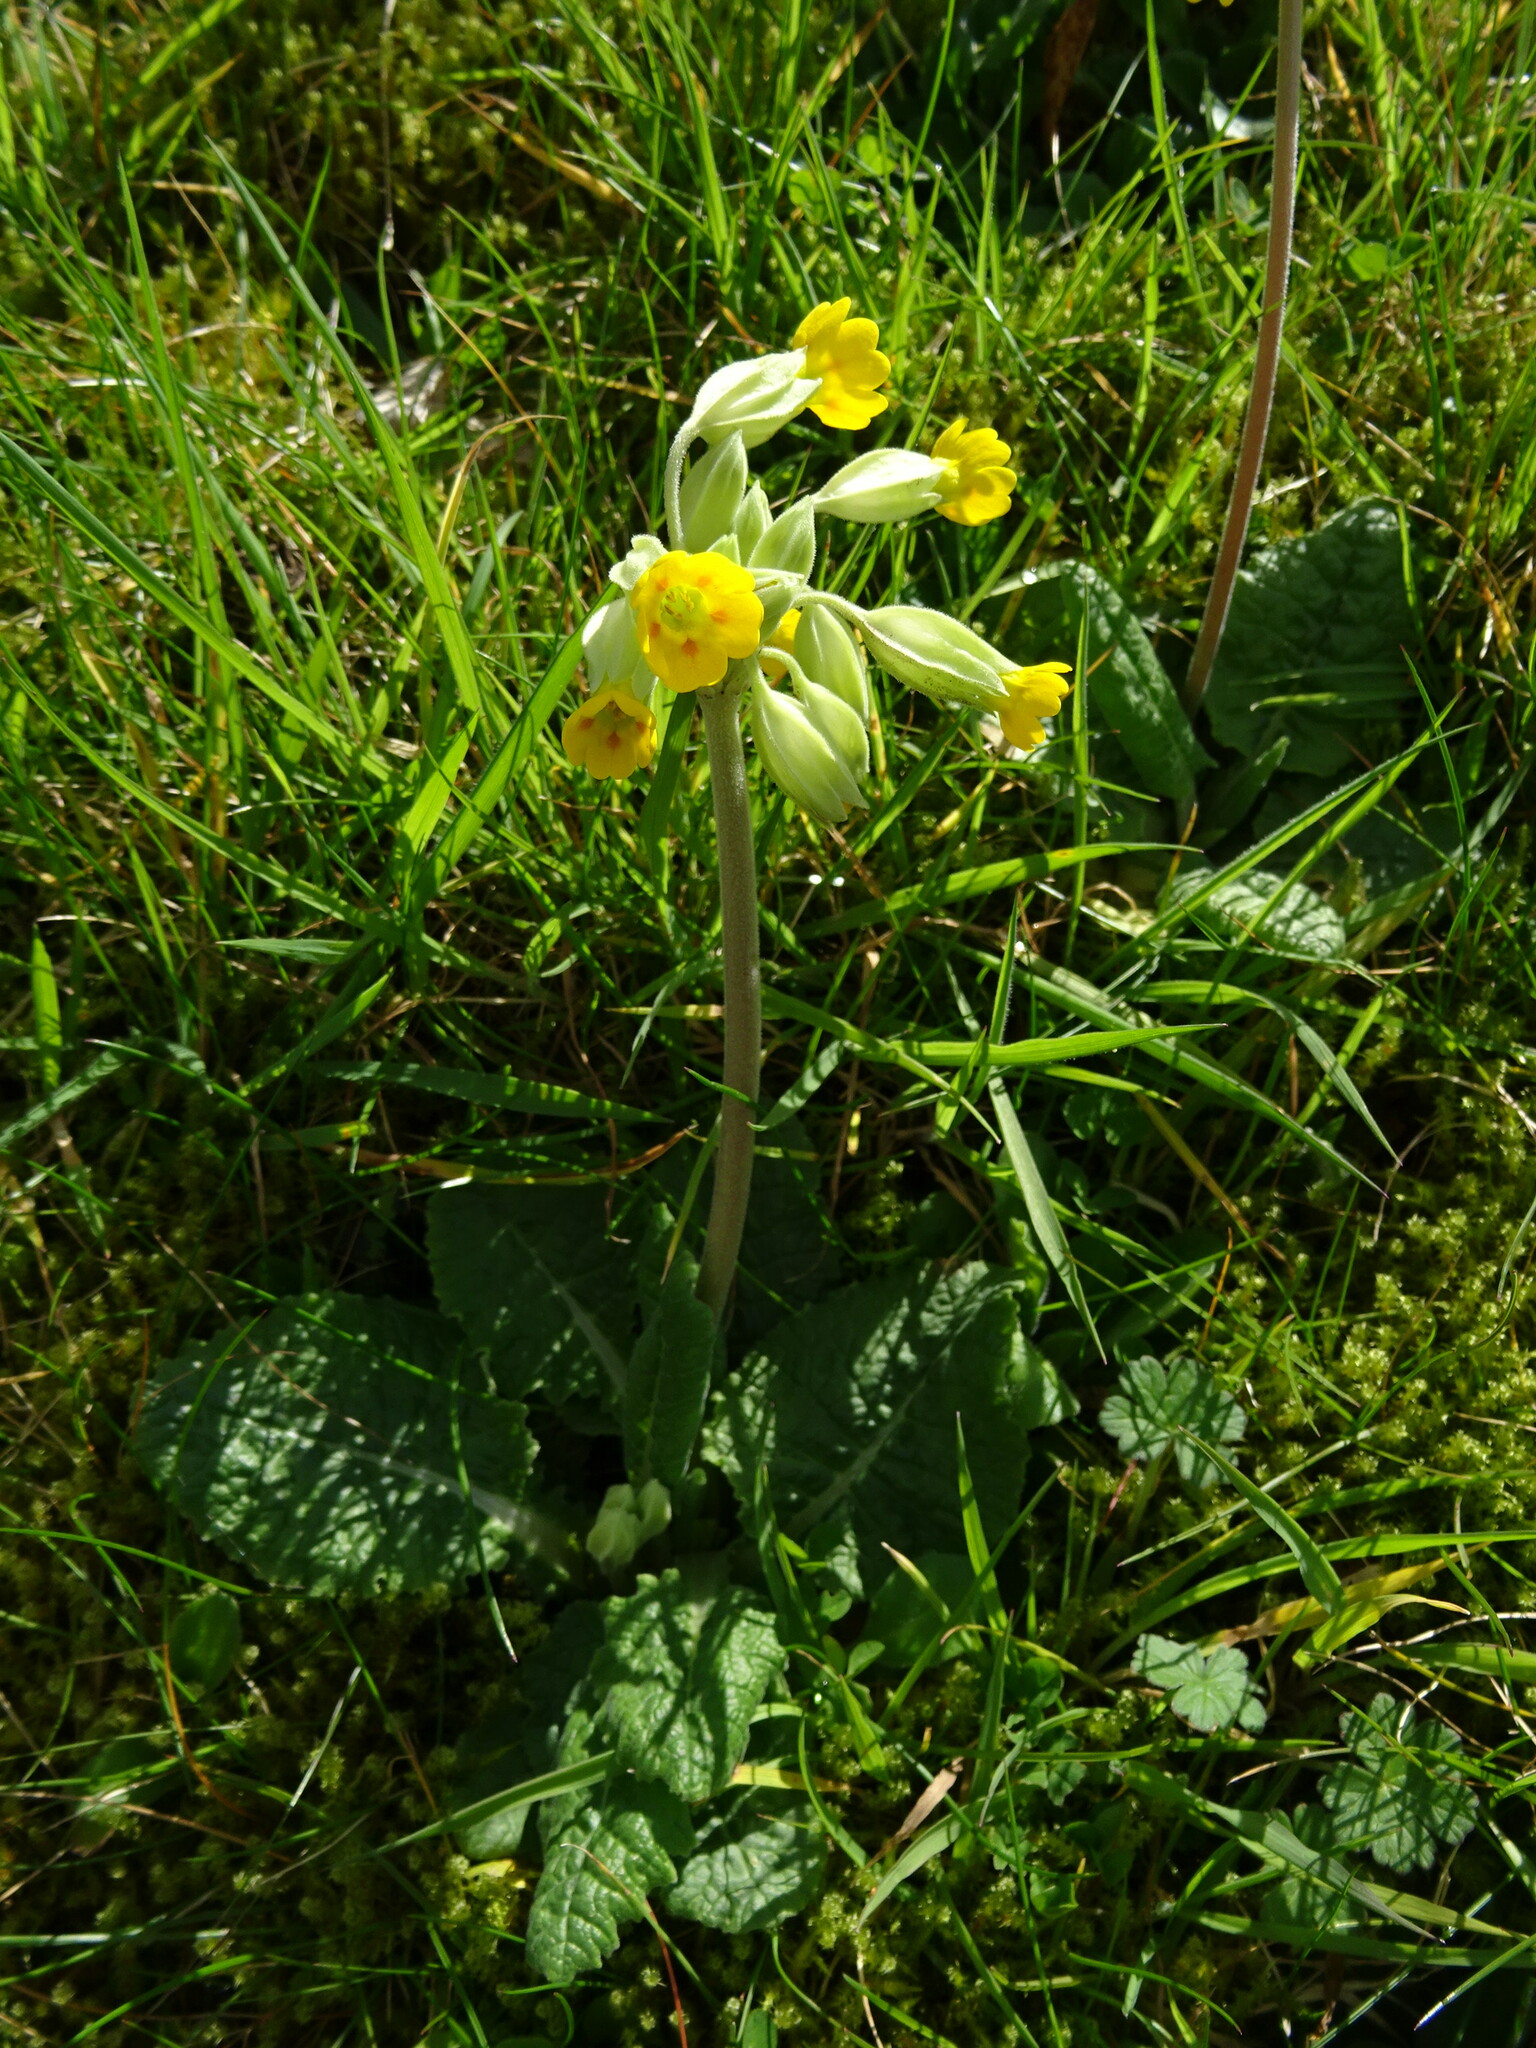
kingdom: Plantae
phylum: Tracheophyta
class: Magnoliopsida
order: Ericales
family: Primulaceae
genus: Primula
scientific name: Primula veris
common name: Cowslip
